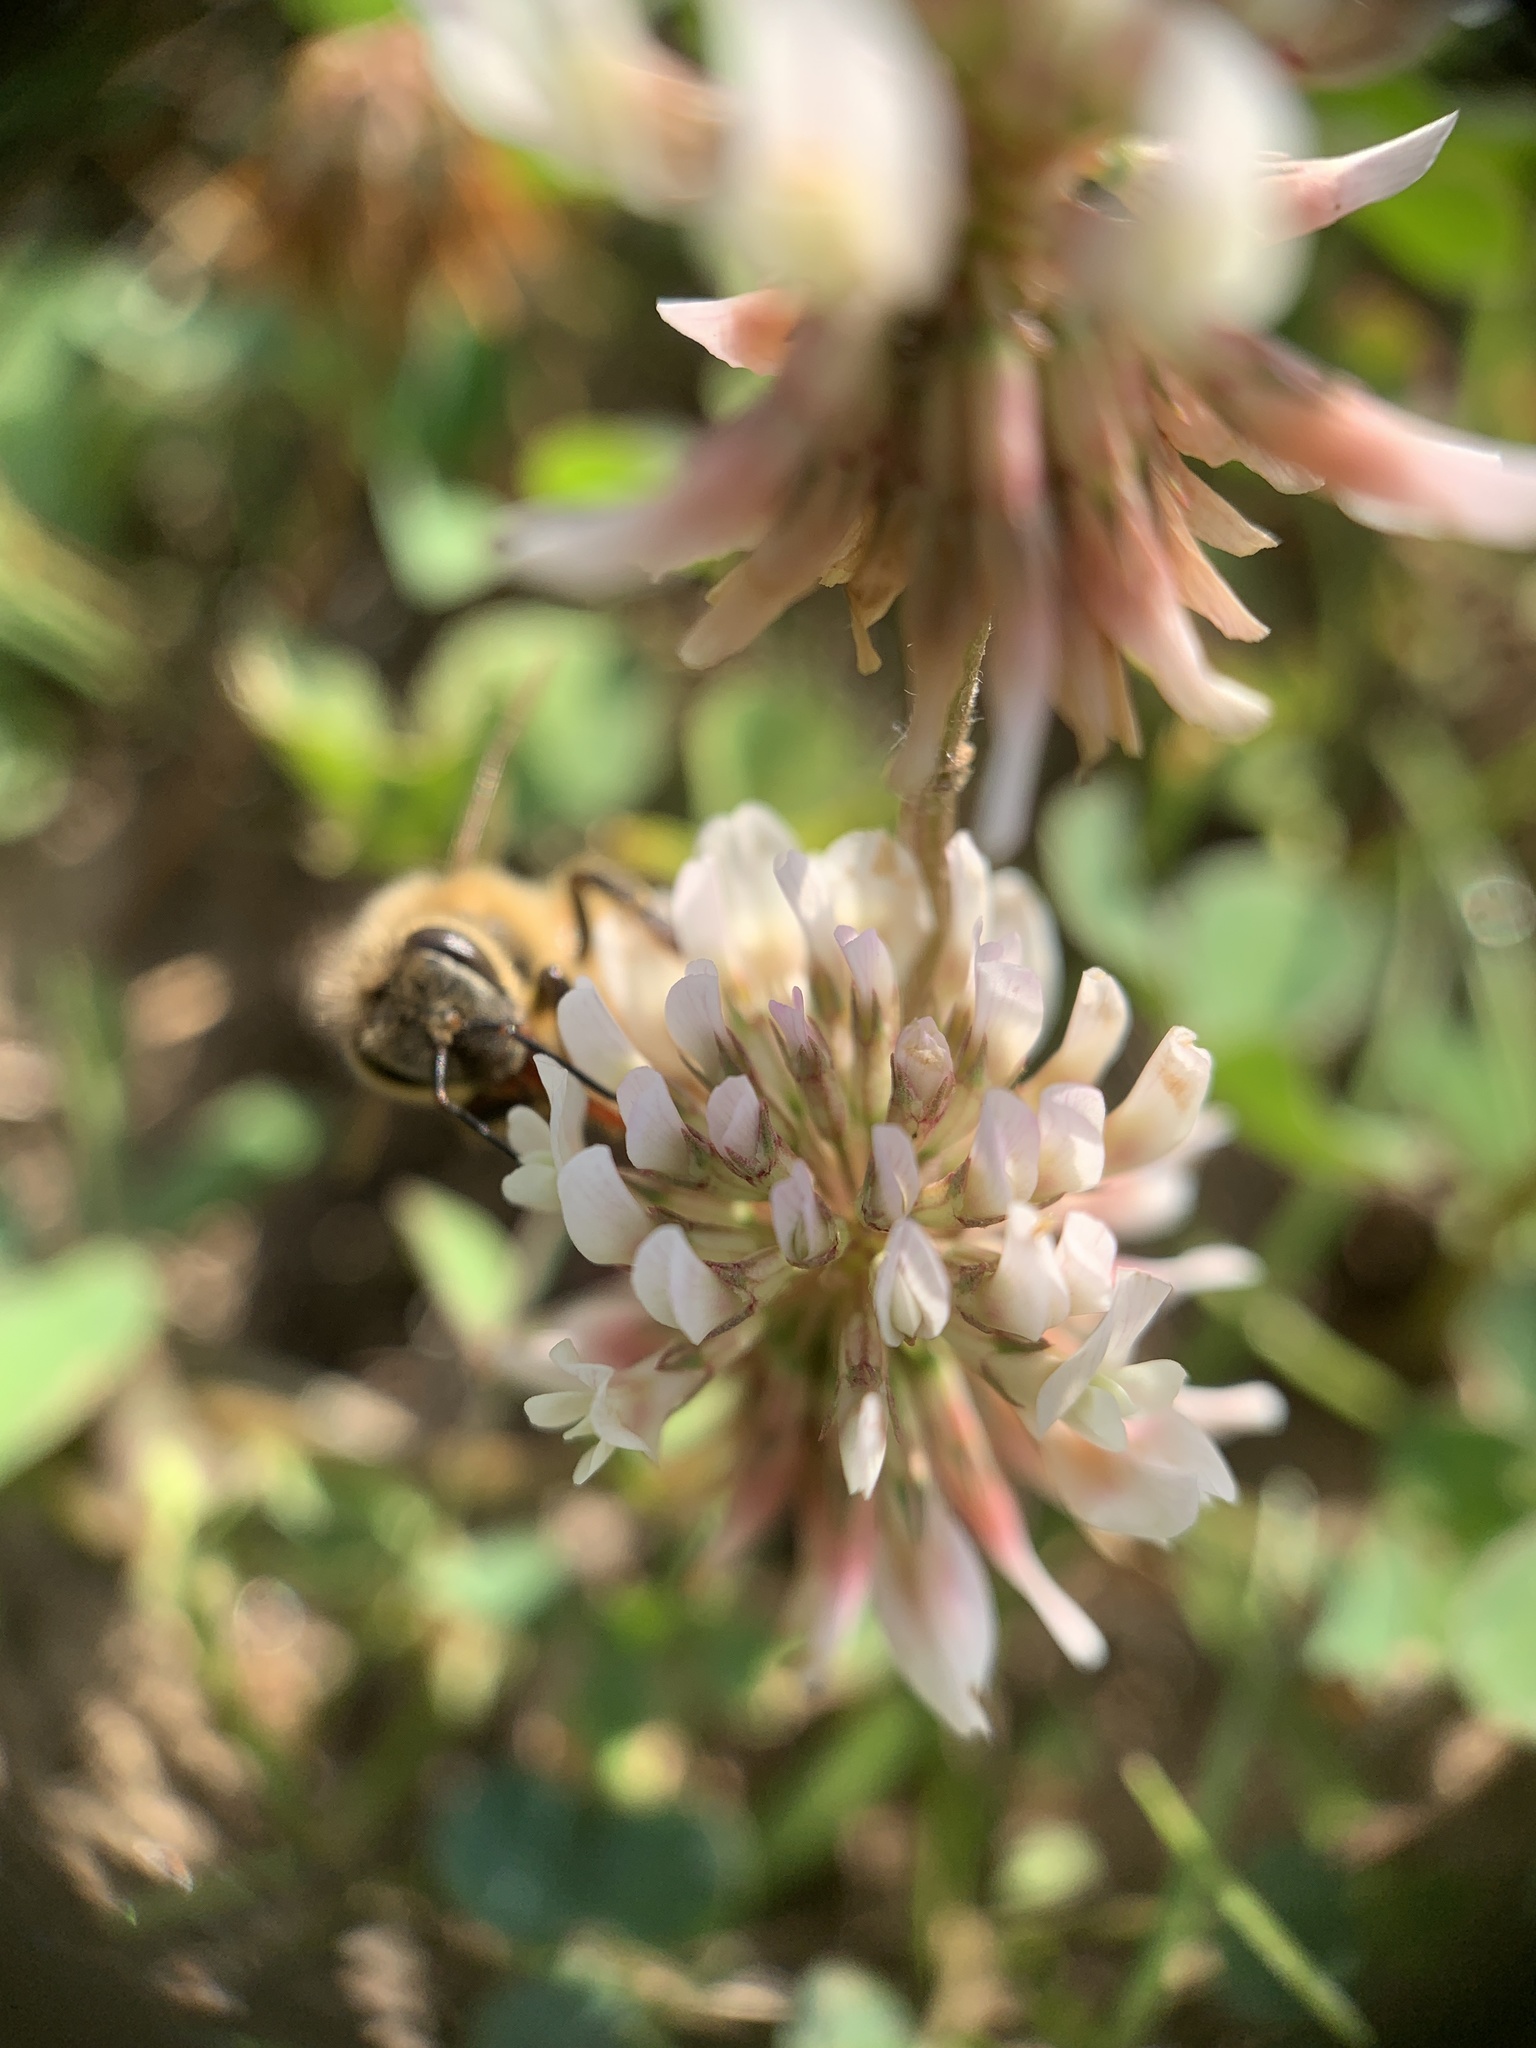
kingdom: Plantae
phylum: Tracheophyta
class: Magnoliopsida
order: Fabales
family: Fabaceae
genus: Trifolium
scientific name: Trifolium repens
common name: White clover
